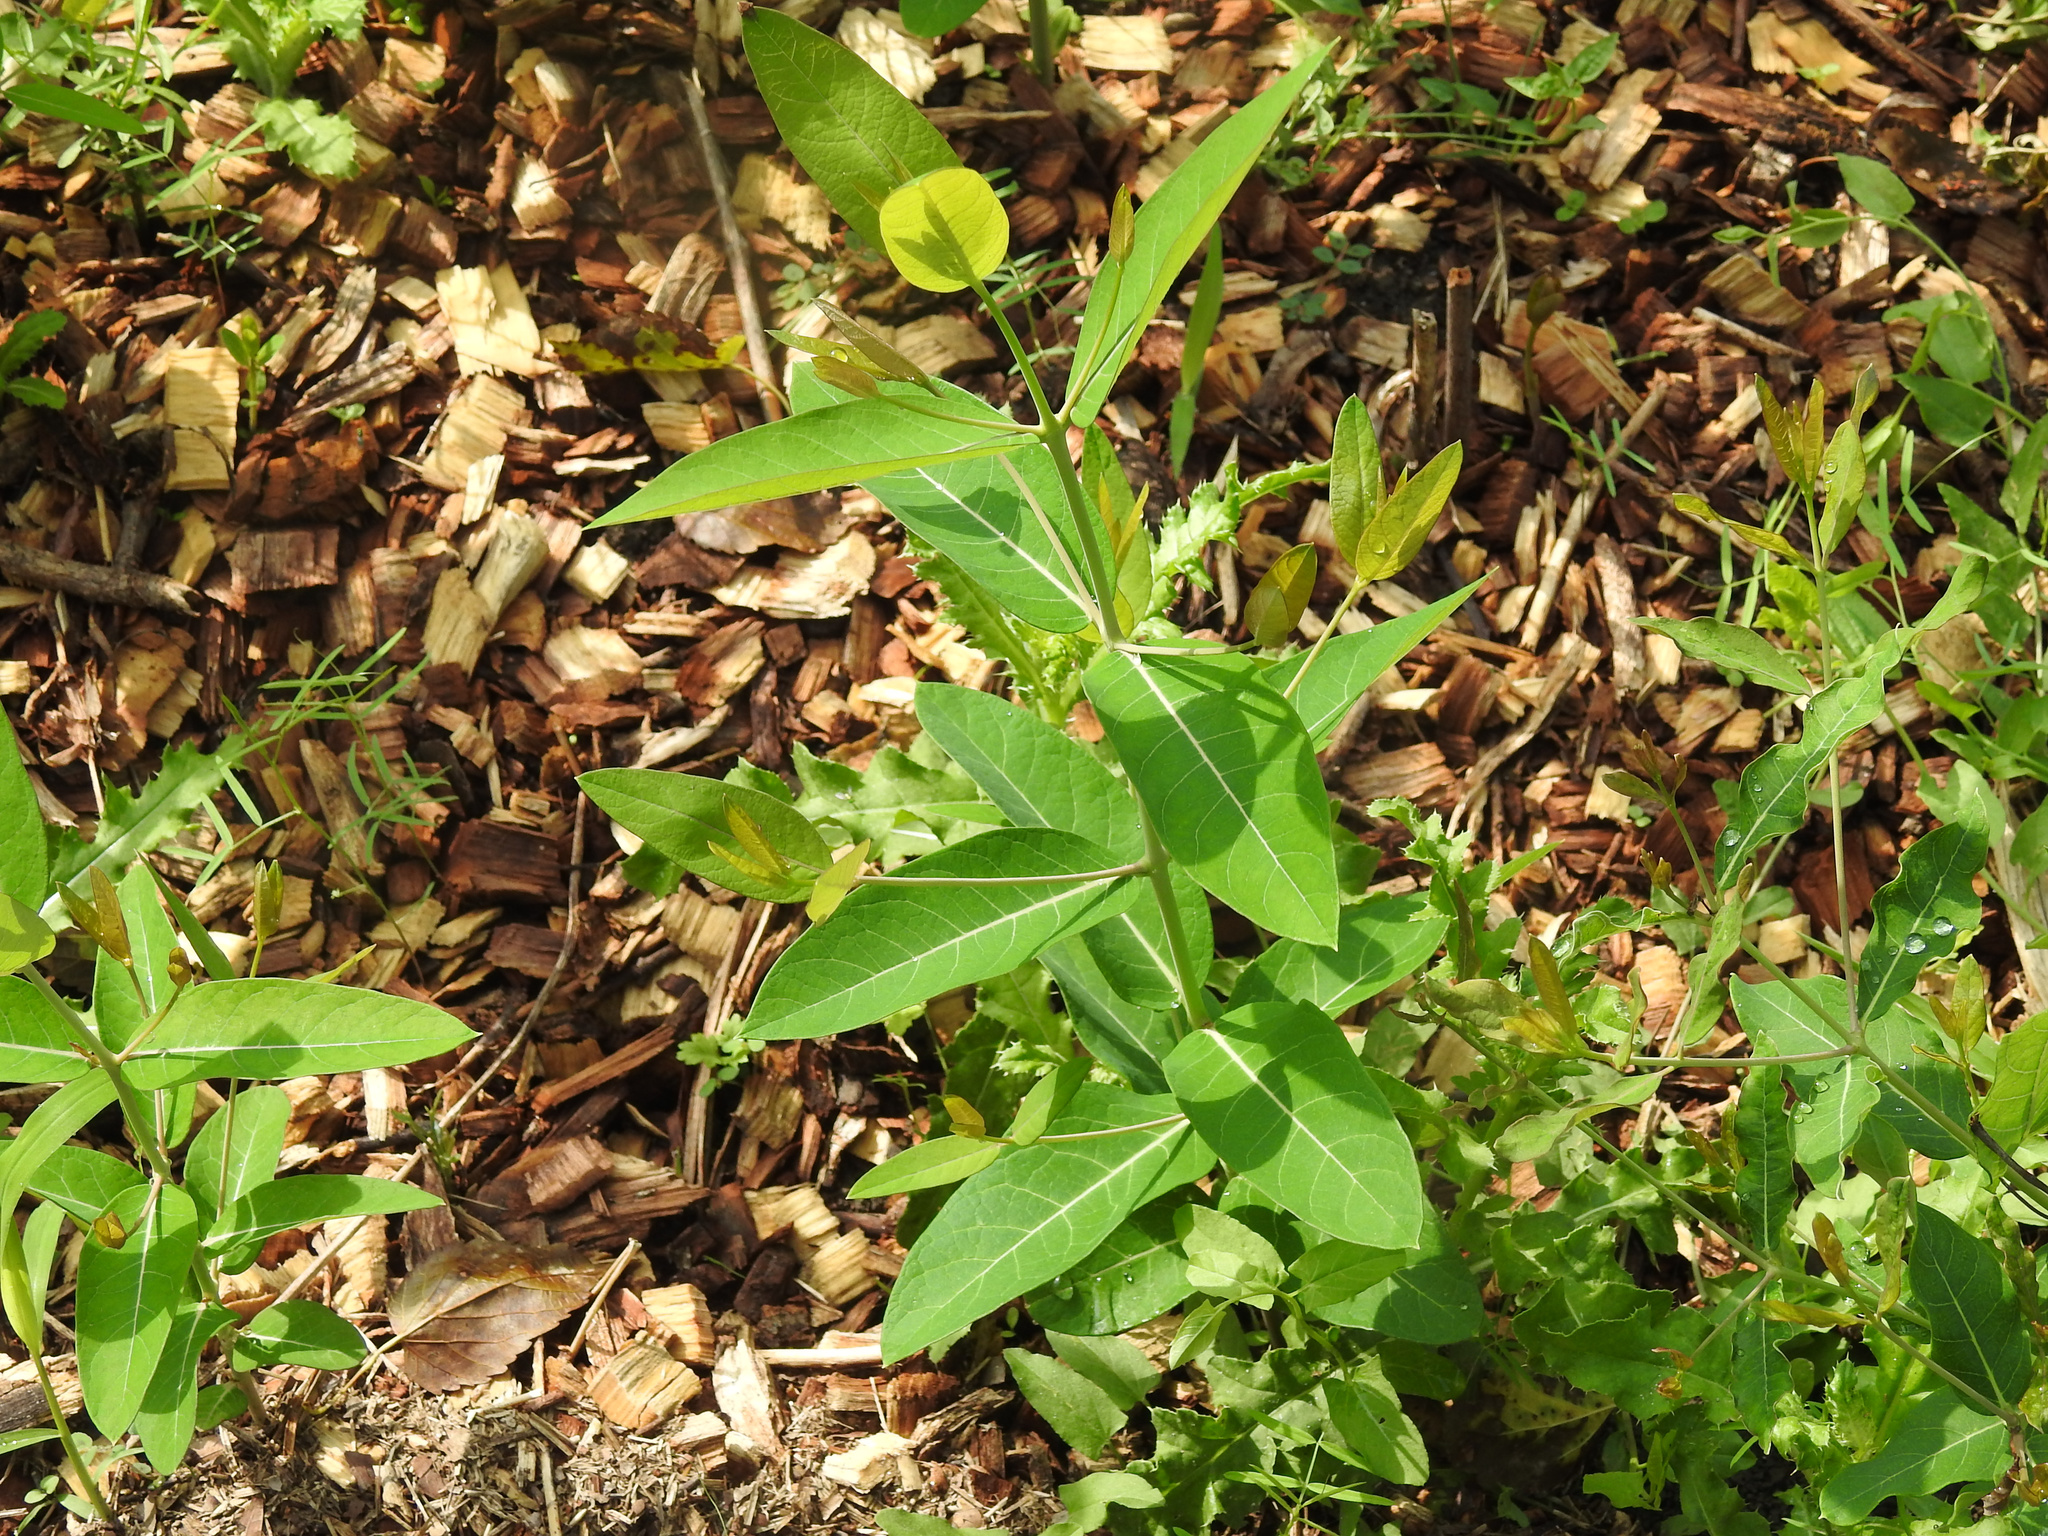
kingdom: Plantae
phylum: Tracheophyta
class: Magnoliopsida
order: Gentianales
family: Apocynaceae
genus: Apocynum
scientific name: Apocynum cannabinum
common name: Hemp dogbane
